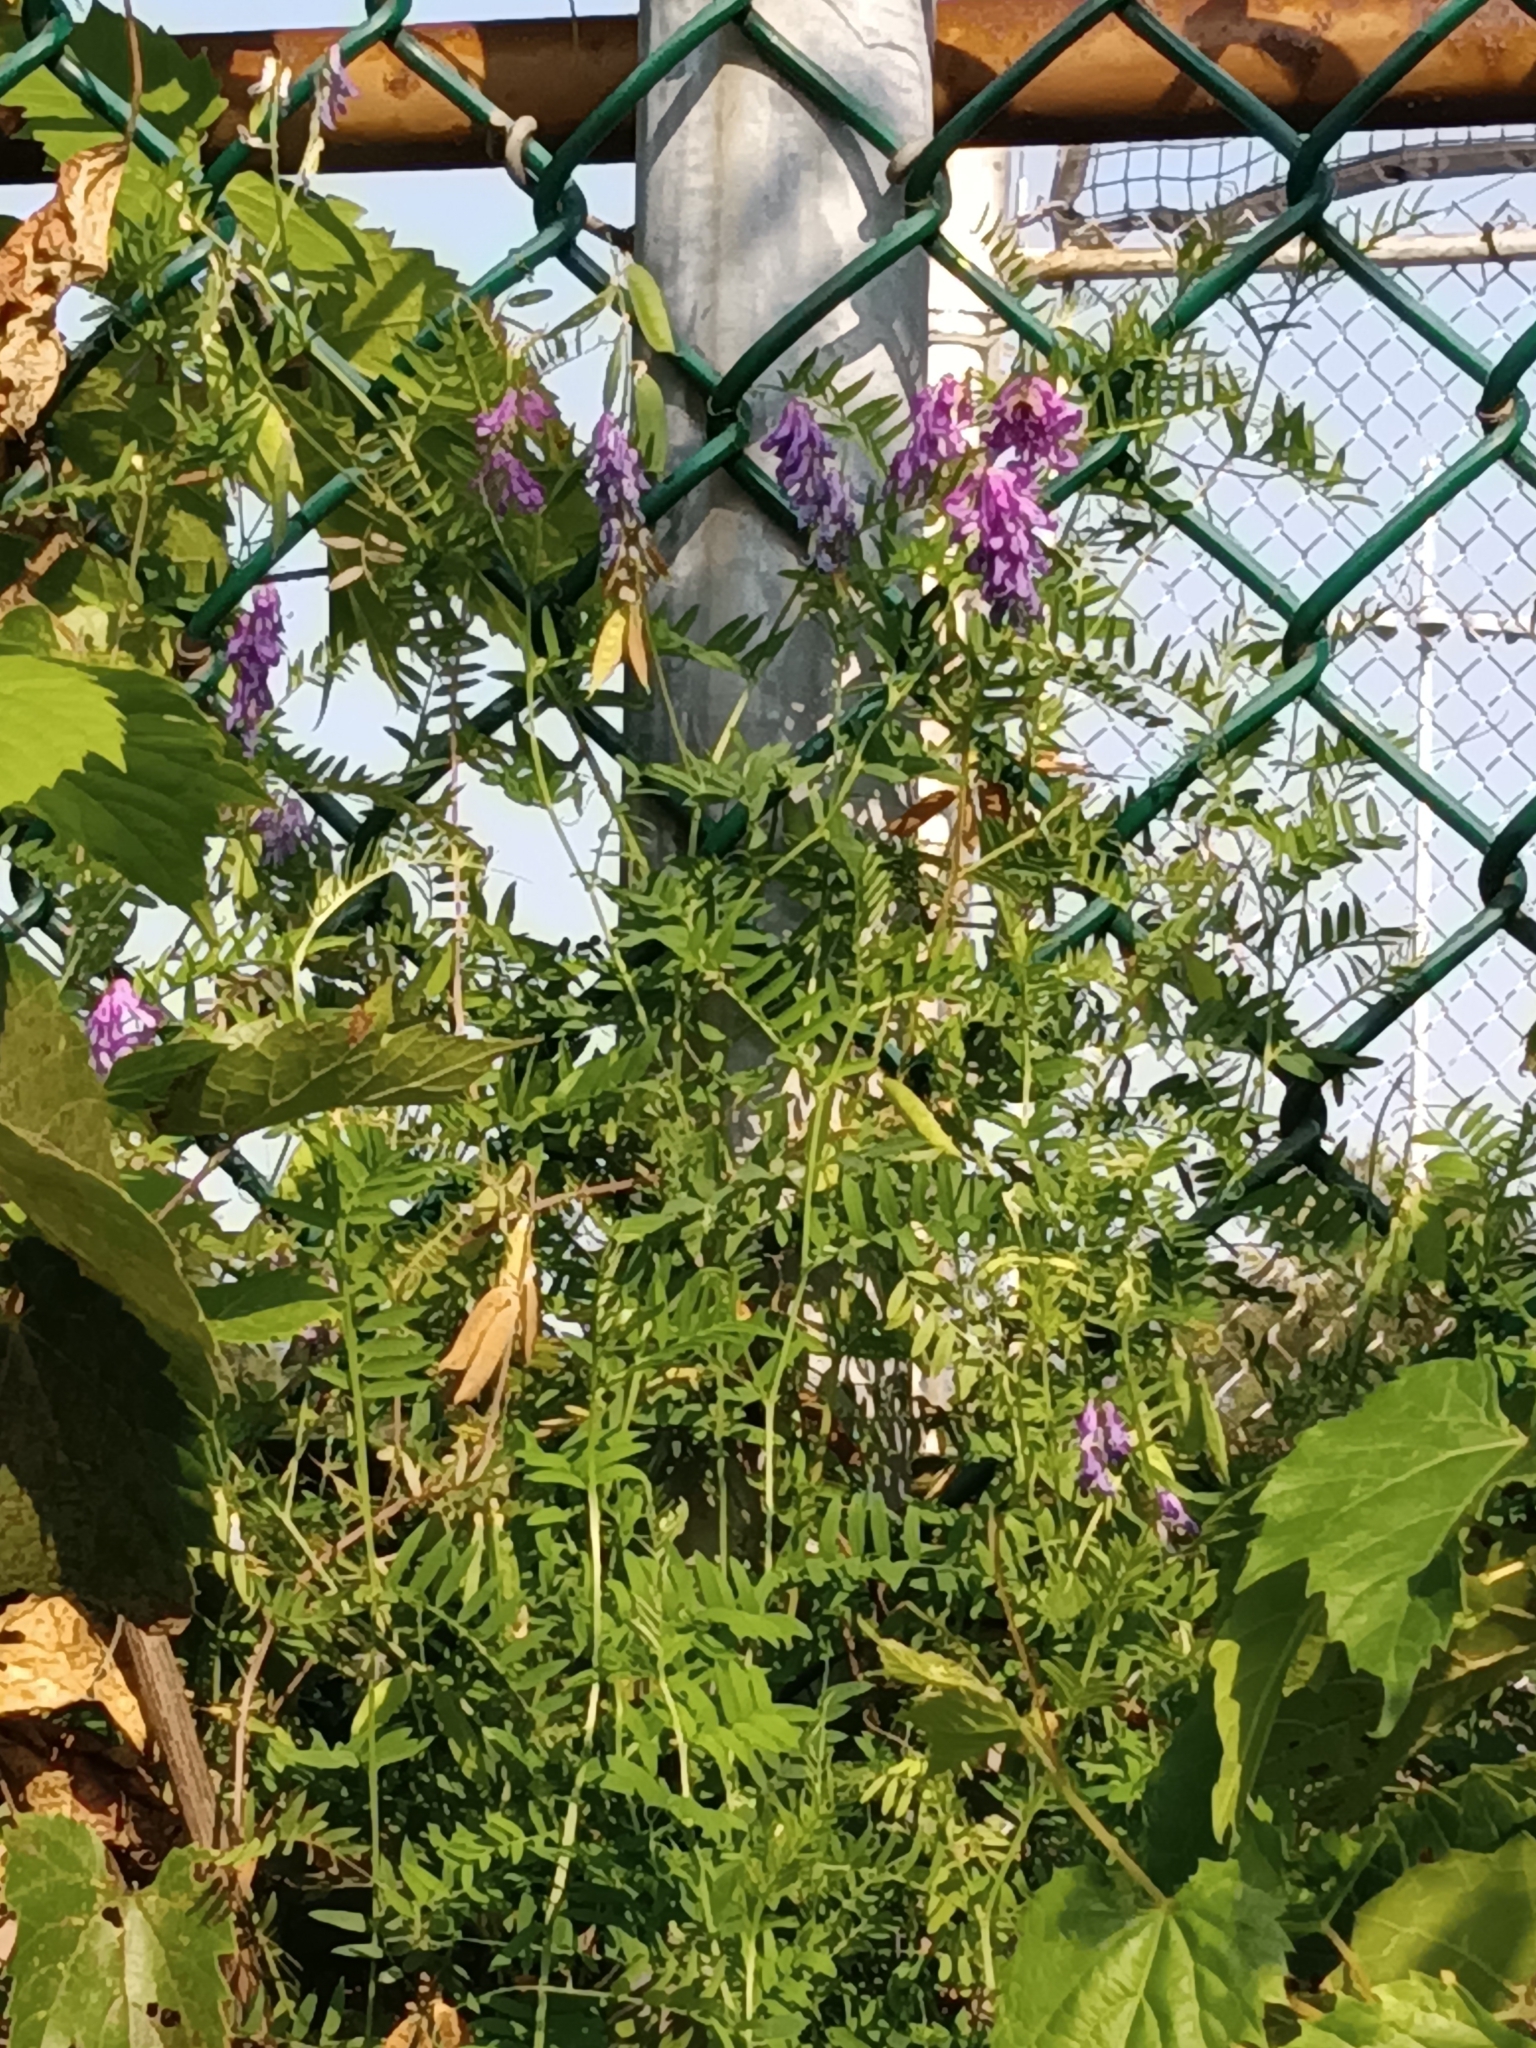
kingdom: Plantae
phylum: Tracheophyta
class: Magnoliopsida
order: Fabales
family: Fabaceae
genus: Vicia
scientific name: Vicia cracca
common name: Bird vetch
